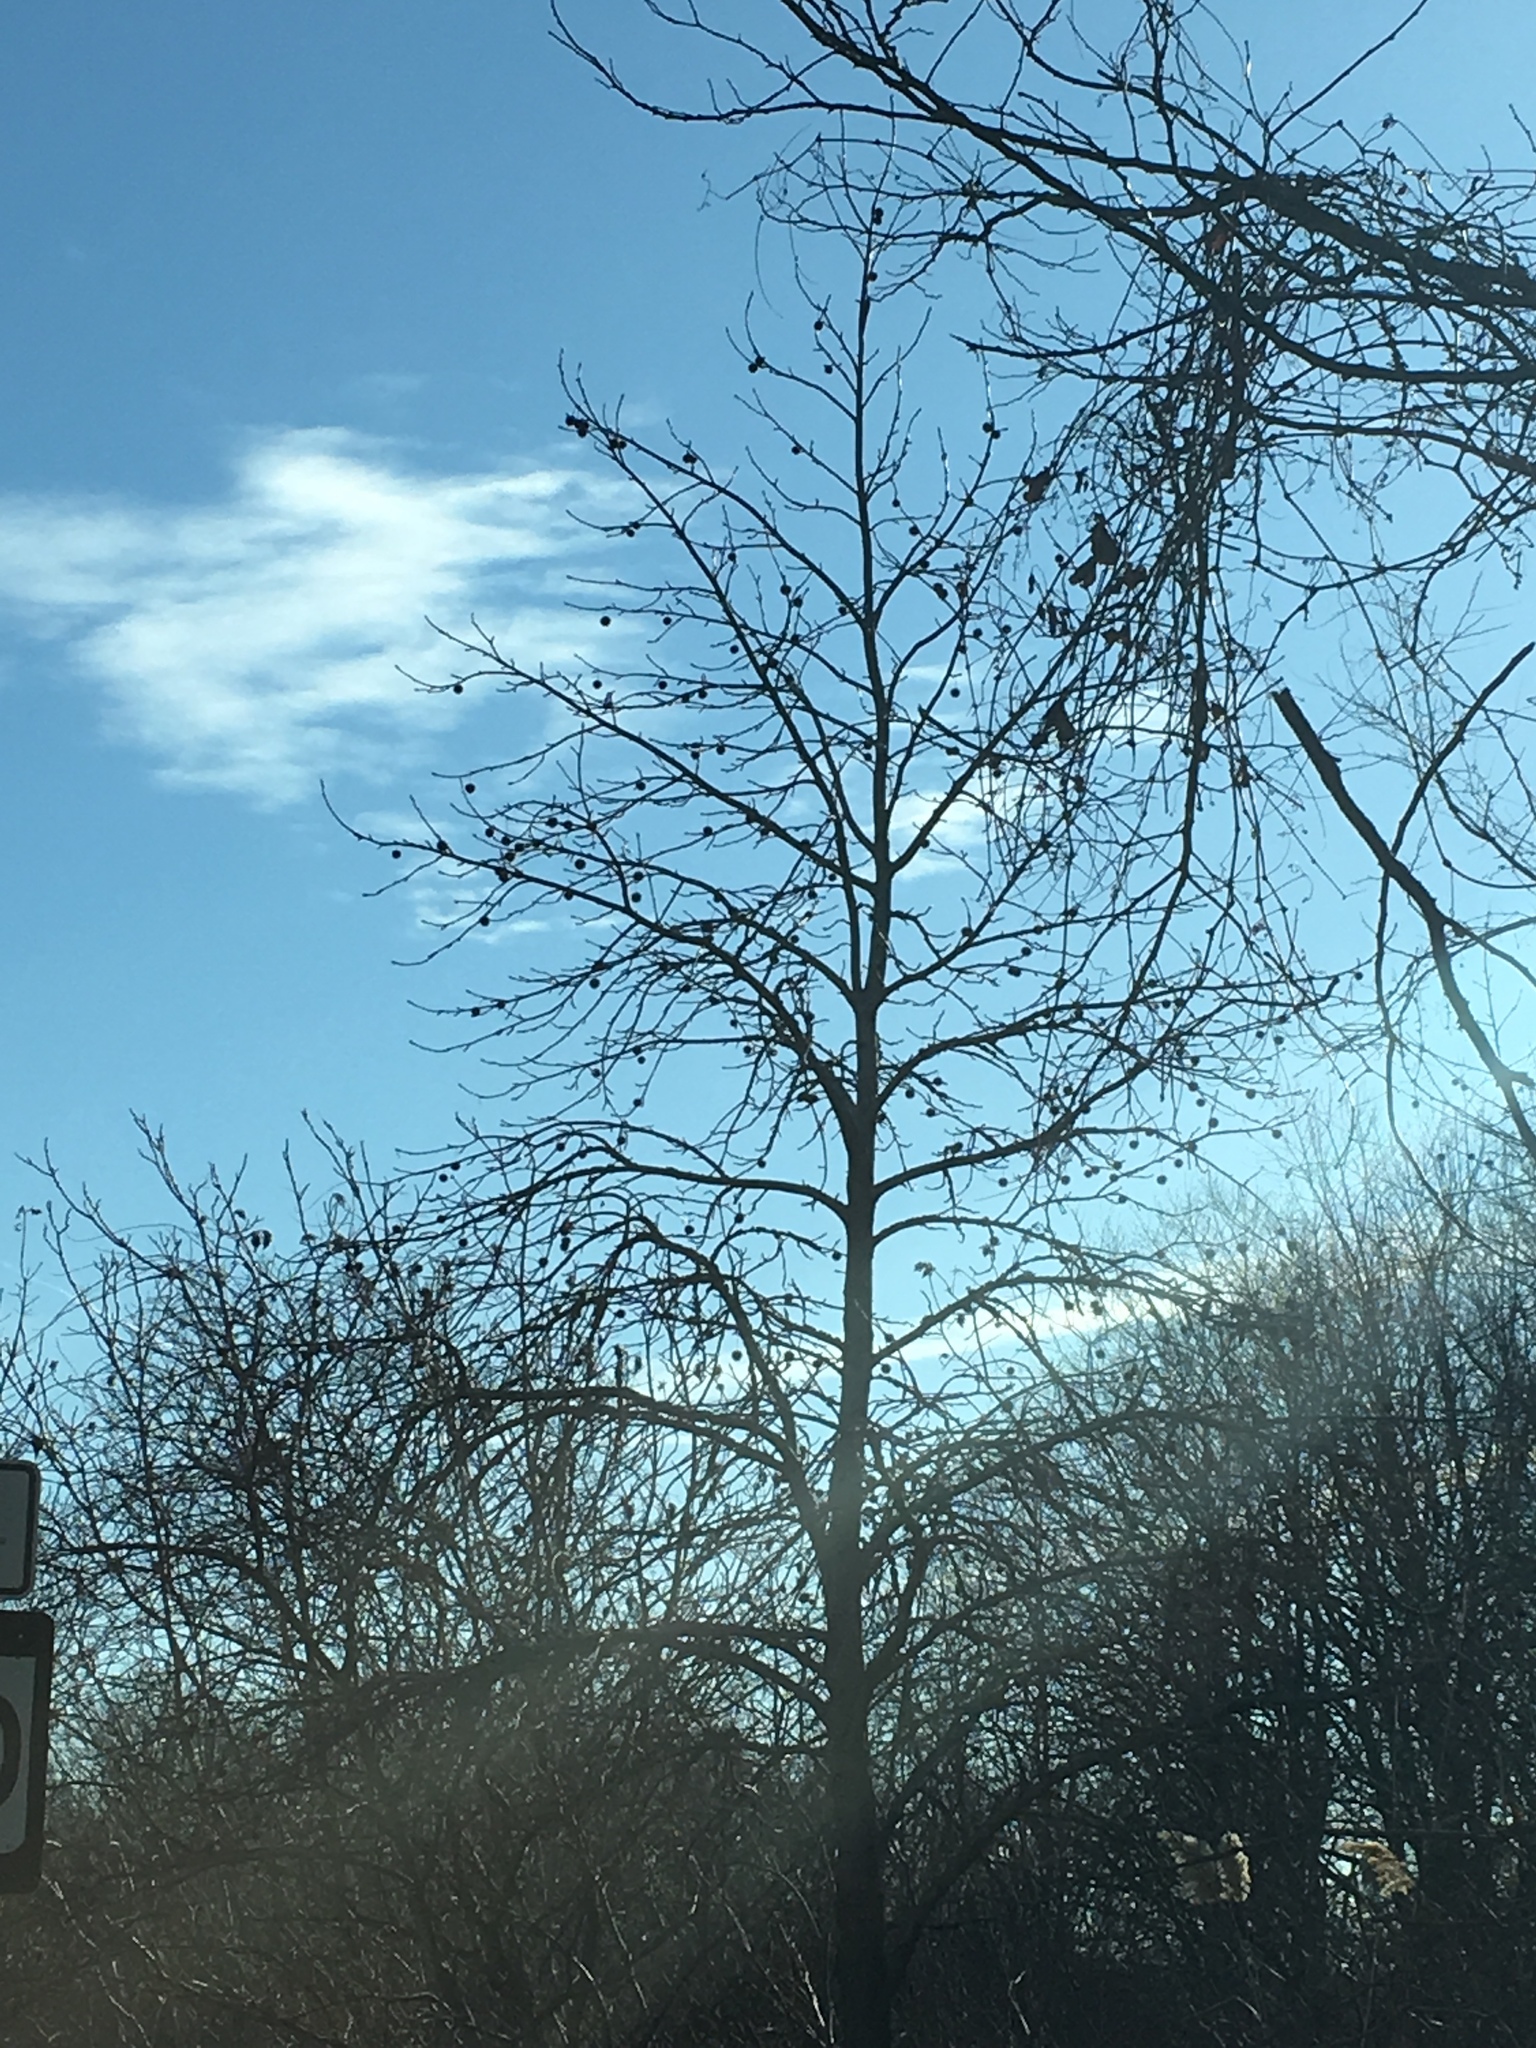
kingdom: Plantae
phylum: Tracheophyta
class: Magnoliopsida
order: Saxifragales
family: Altingiaceae
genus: Liquidambar
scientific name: Liquidambar styraciflua
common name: Sweet gum
